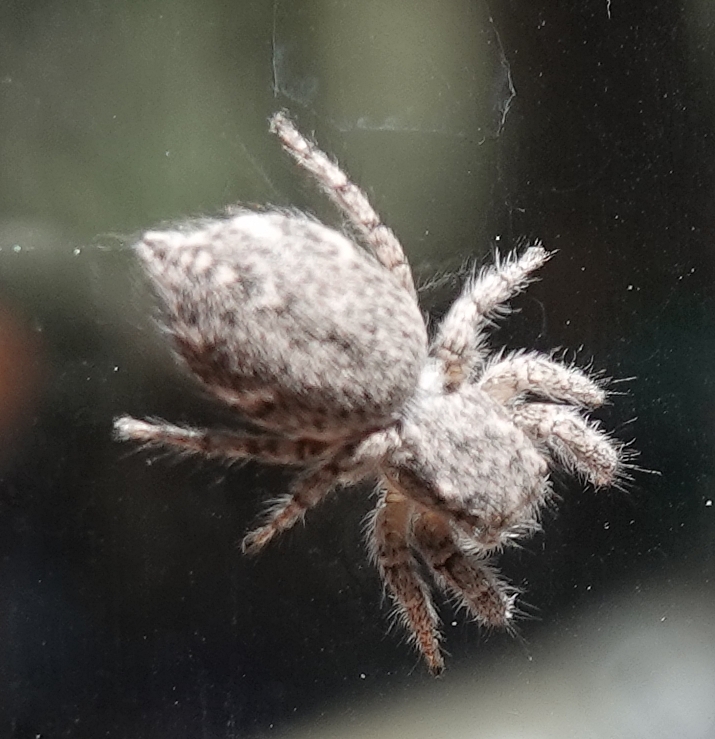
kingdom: Animalia
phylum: Arthropoda
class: Arachnida
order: Araneae
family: Salticidae
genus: Habronattus
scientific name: Habronattus cognatus
